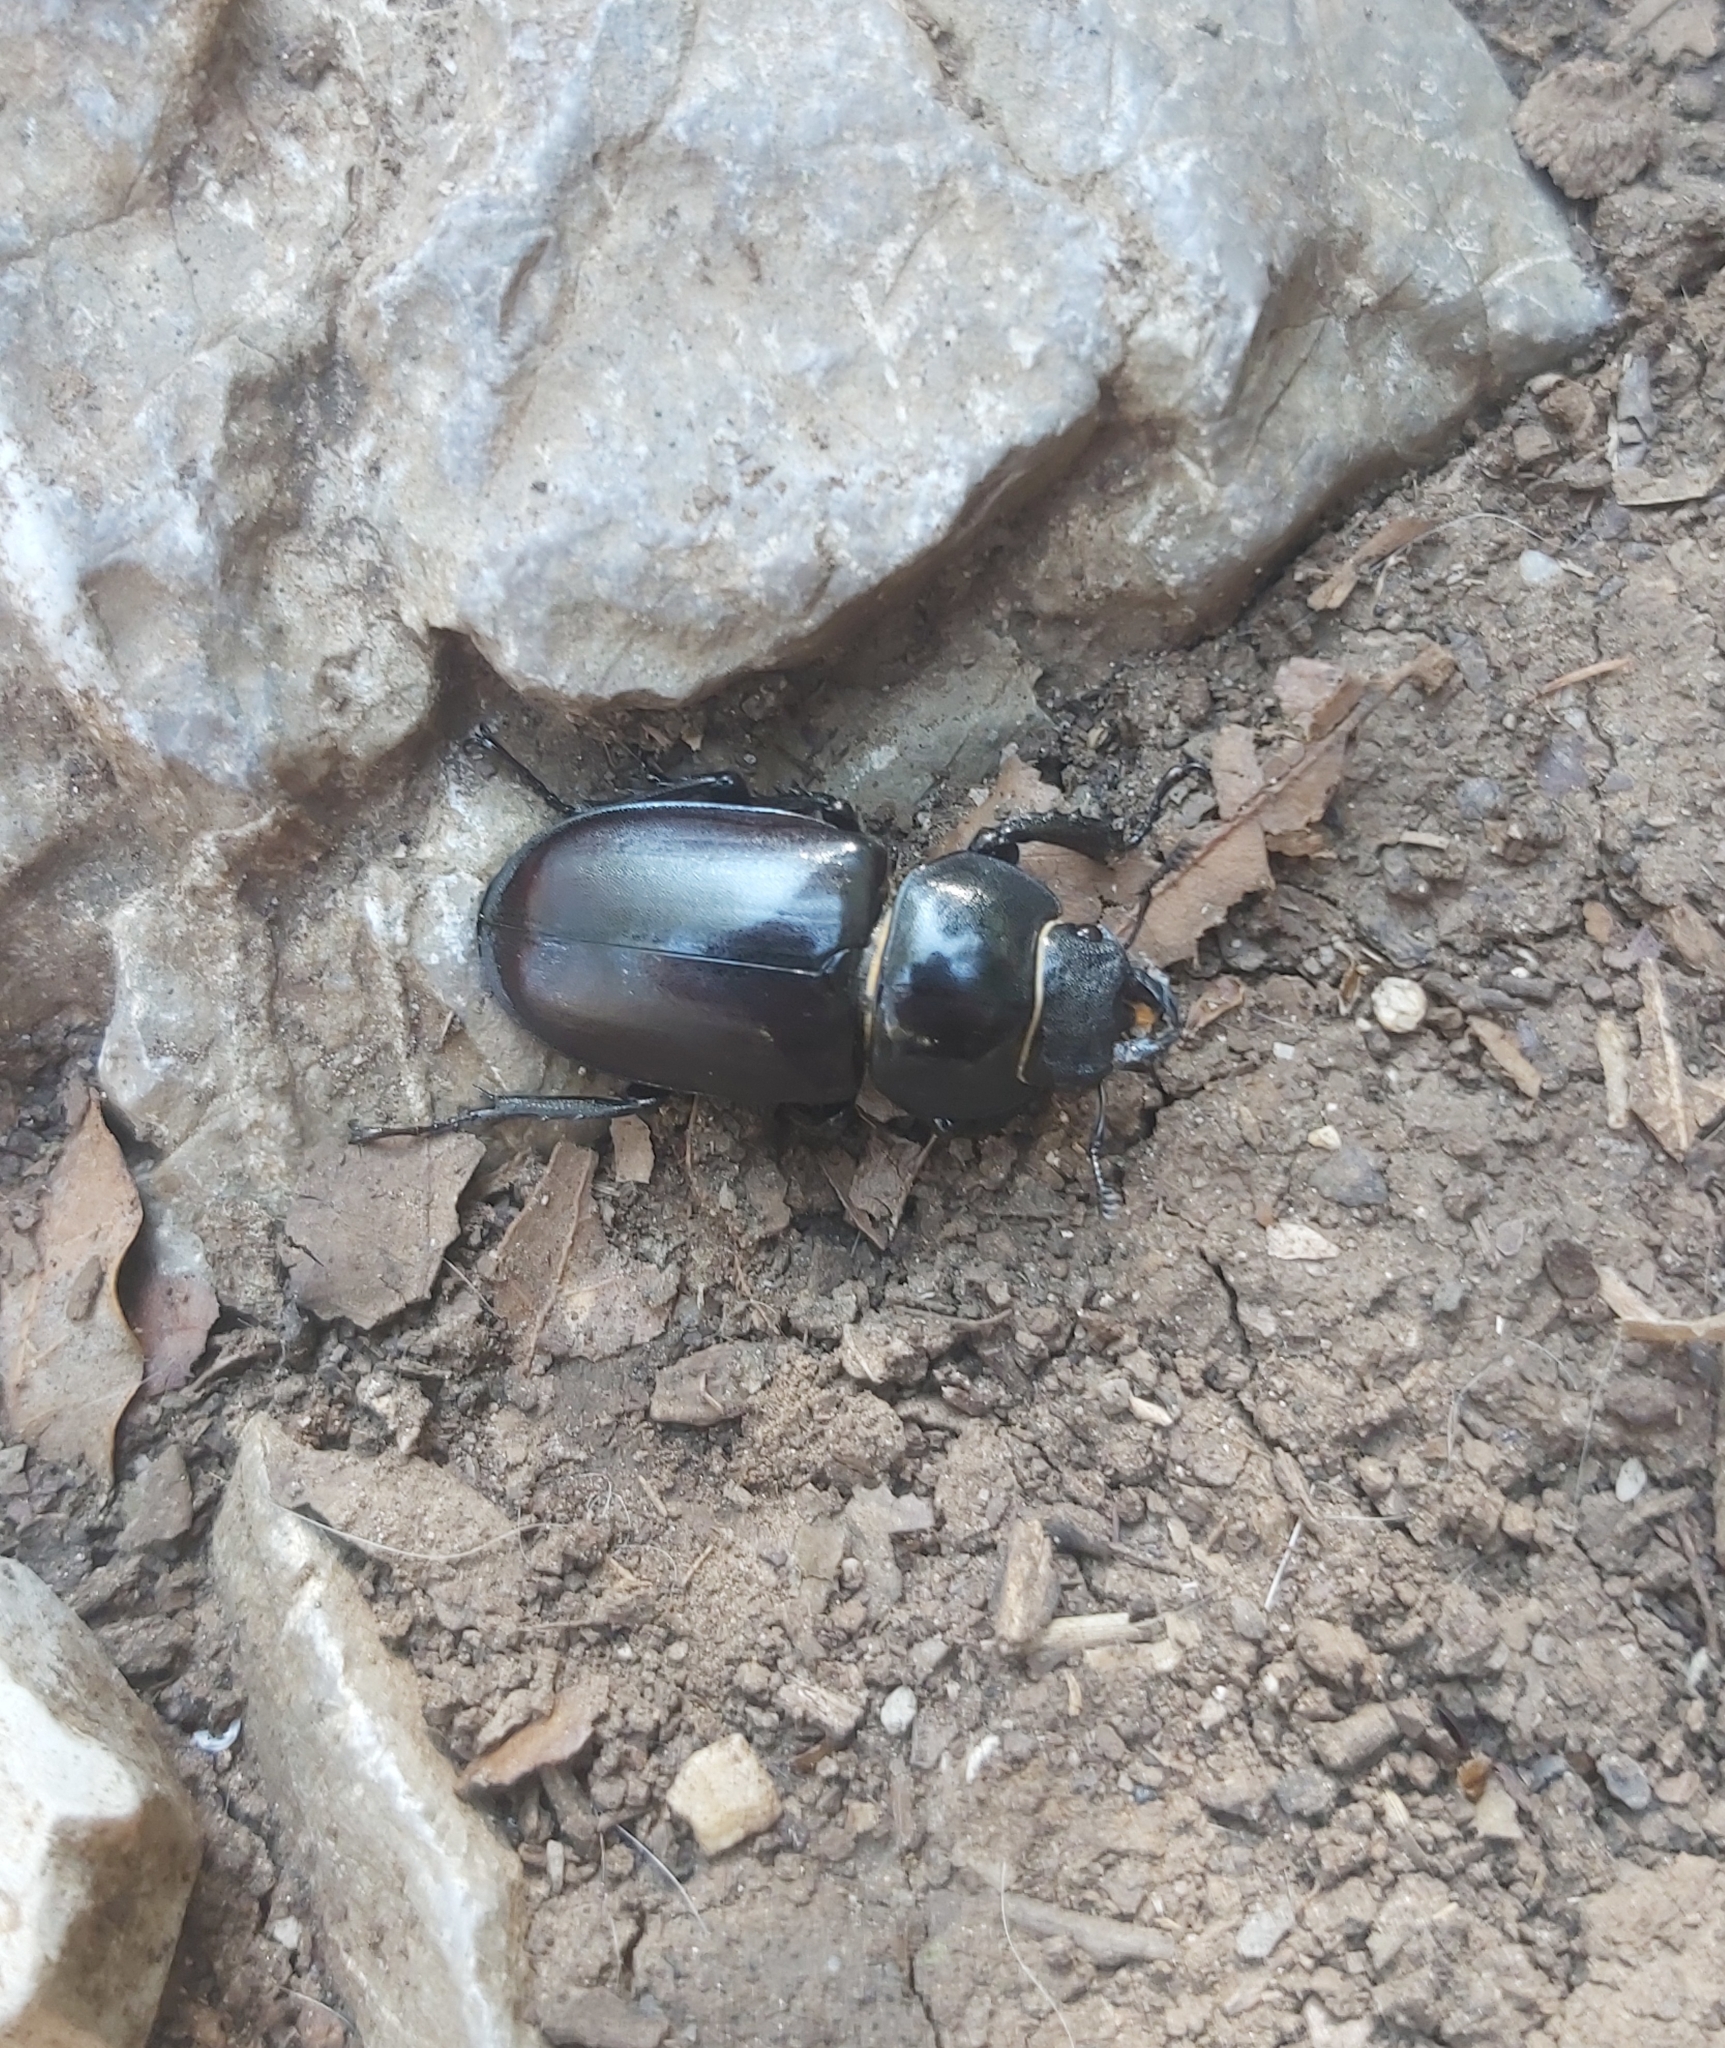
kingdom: Animalia
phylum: Arthropoda
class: Insecta
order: Coleoptera
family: Lucanidae
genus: Lucanus
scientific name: Lucanus cervus
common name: Stag beetle
